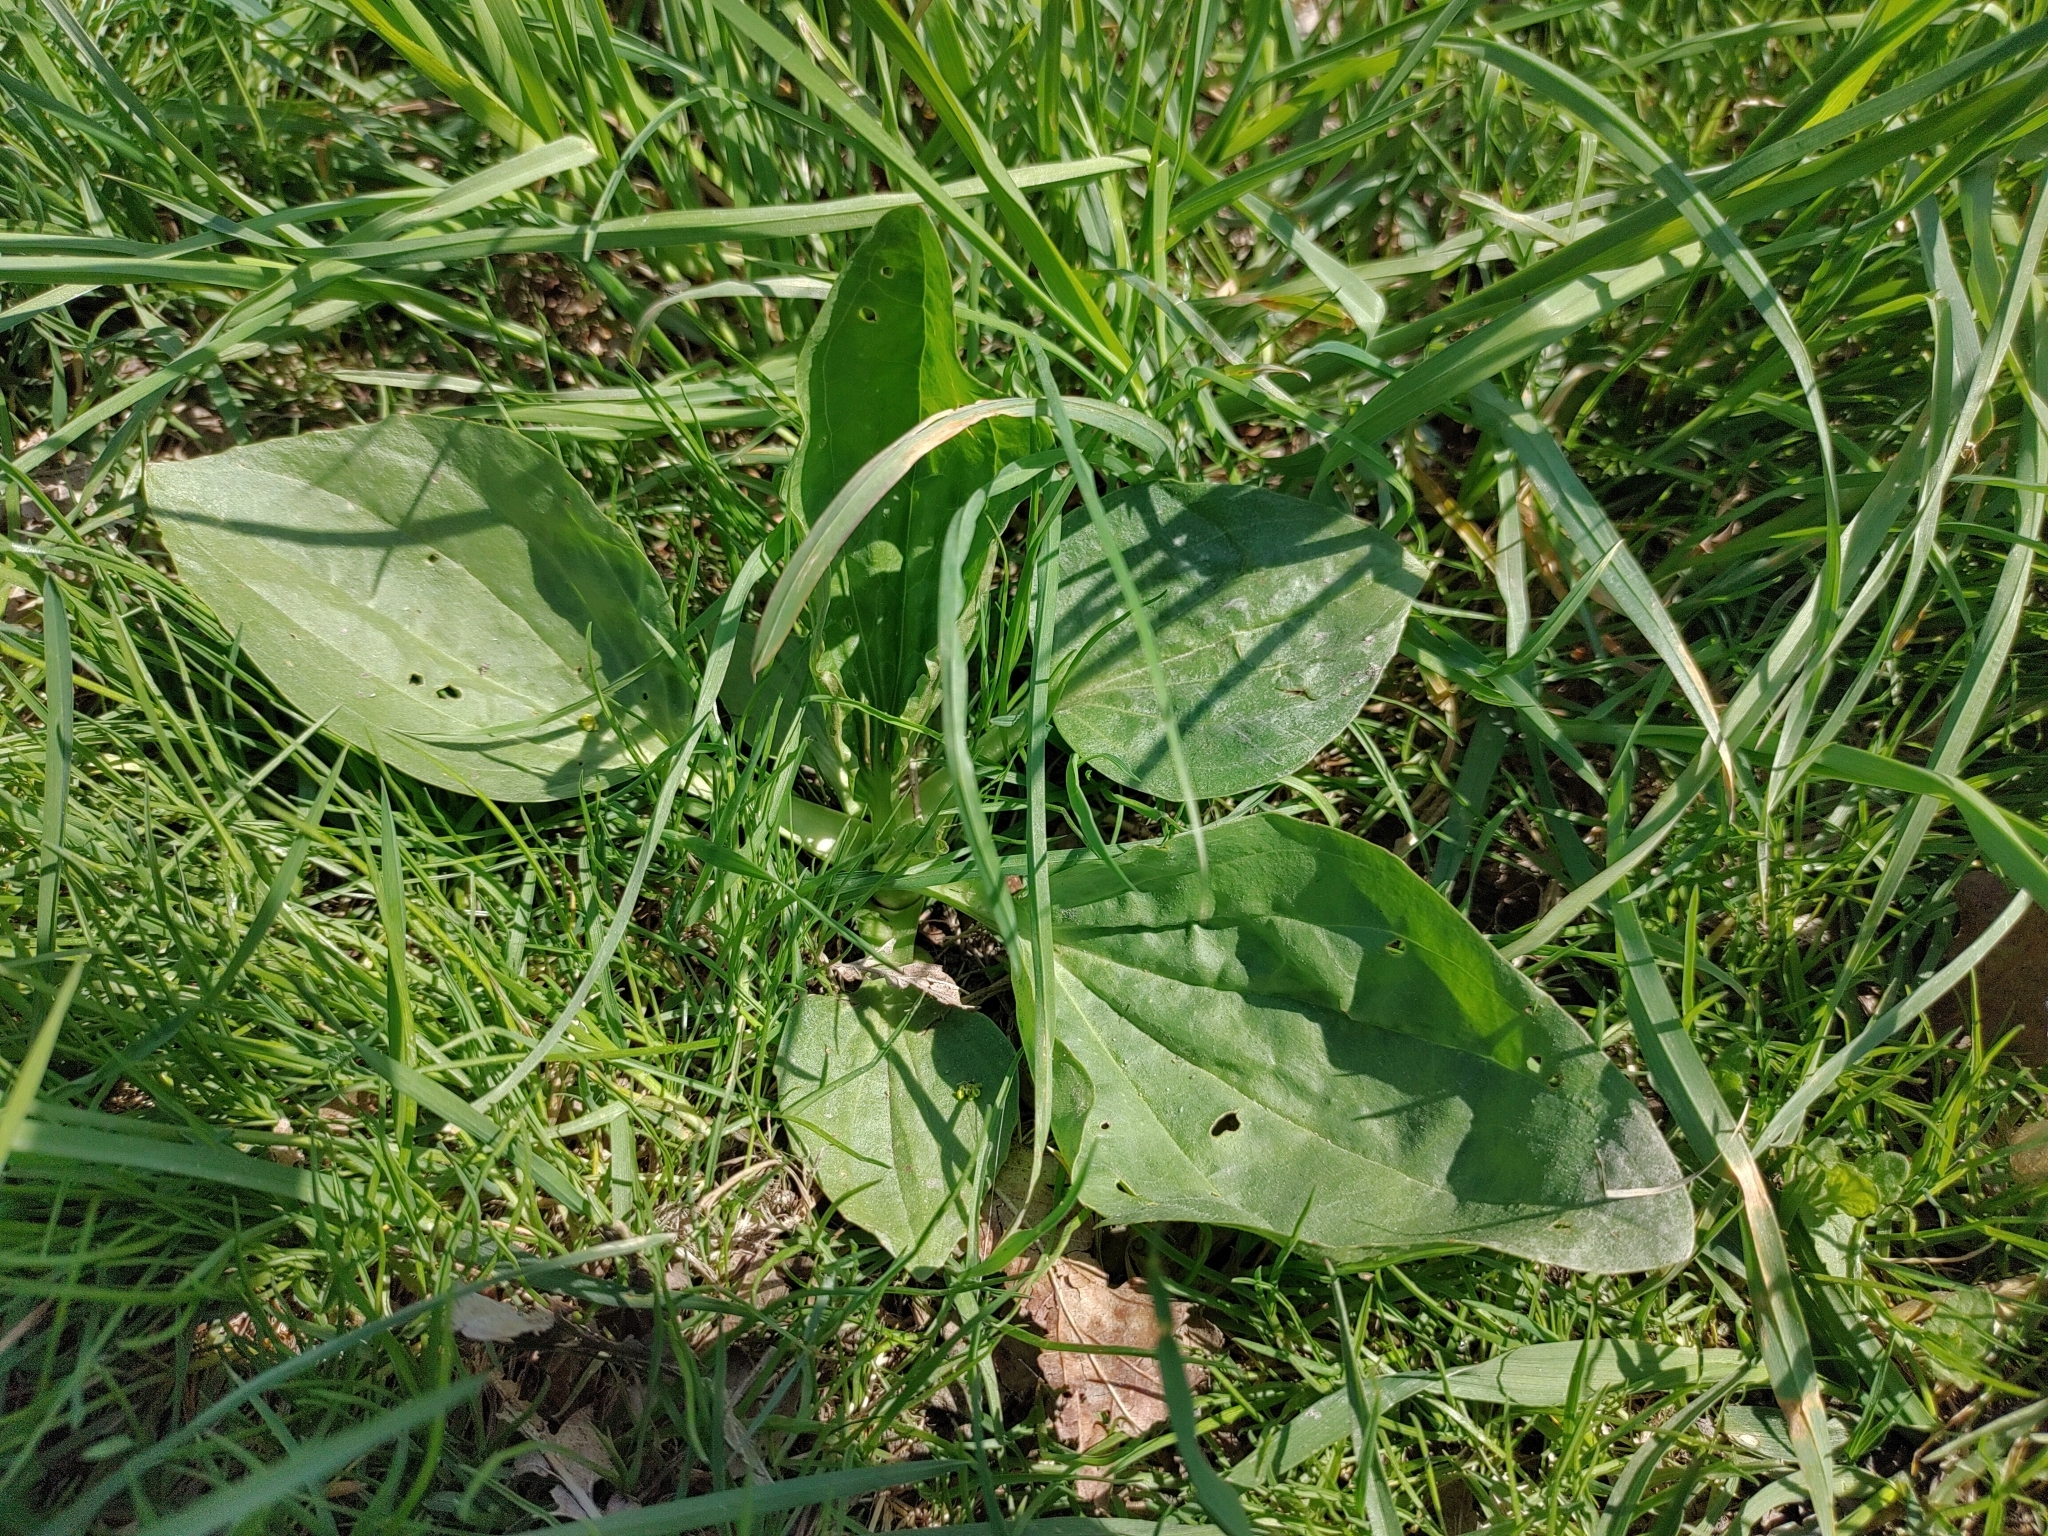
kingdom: Plantae
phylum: Tracheophyta
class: Magnoliopsida
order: Lamiales
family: Plantaginaceae
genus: Plantago
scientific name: Plantago major
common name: Common plantain
